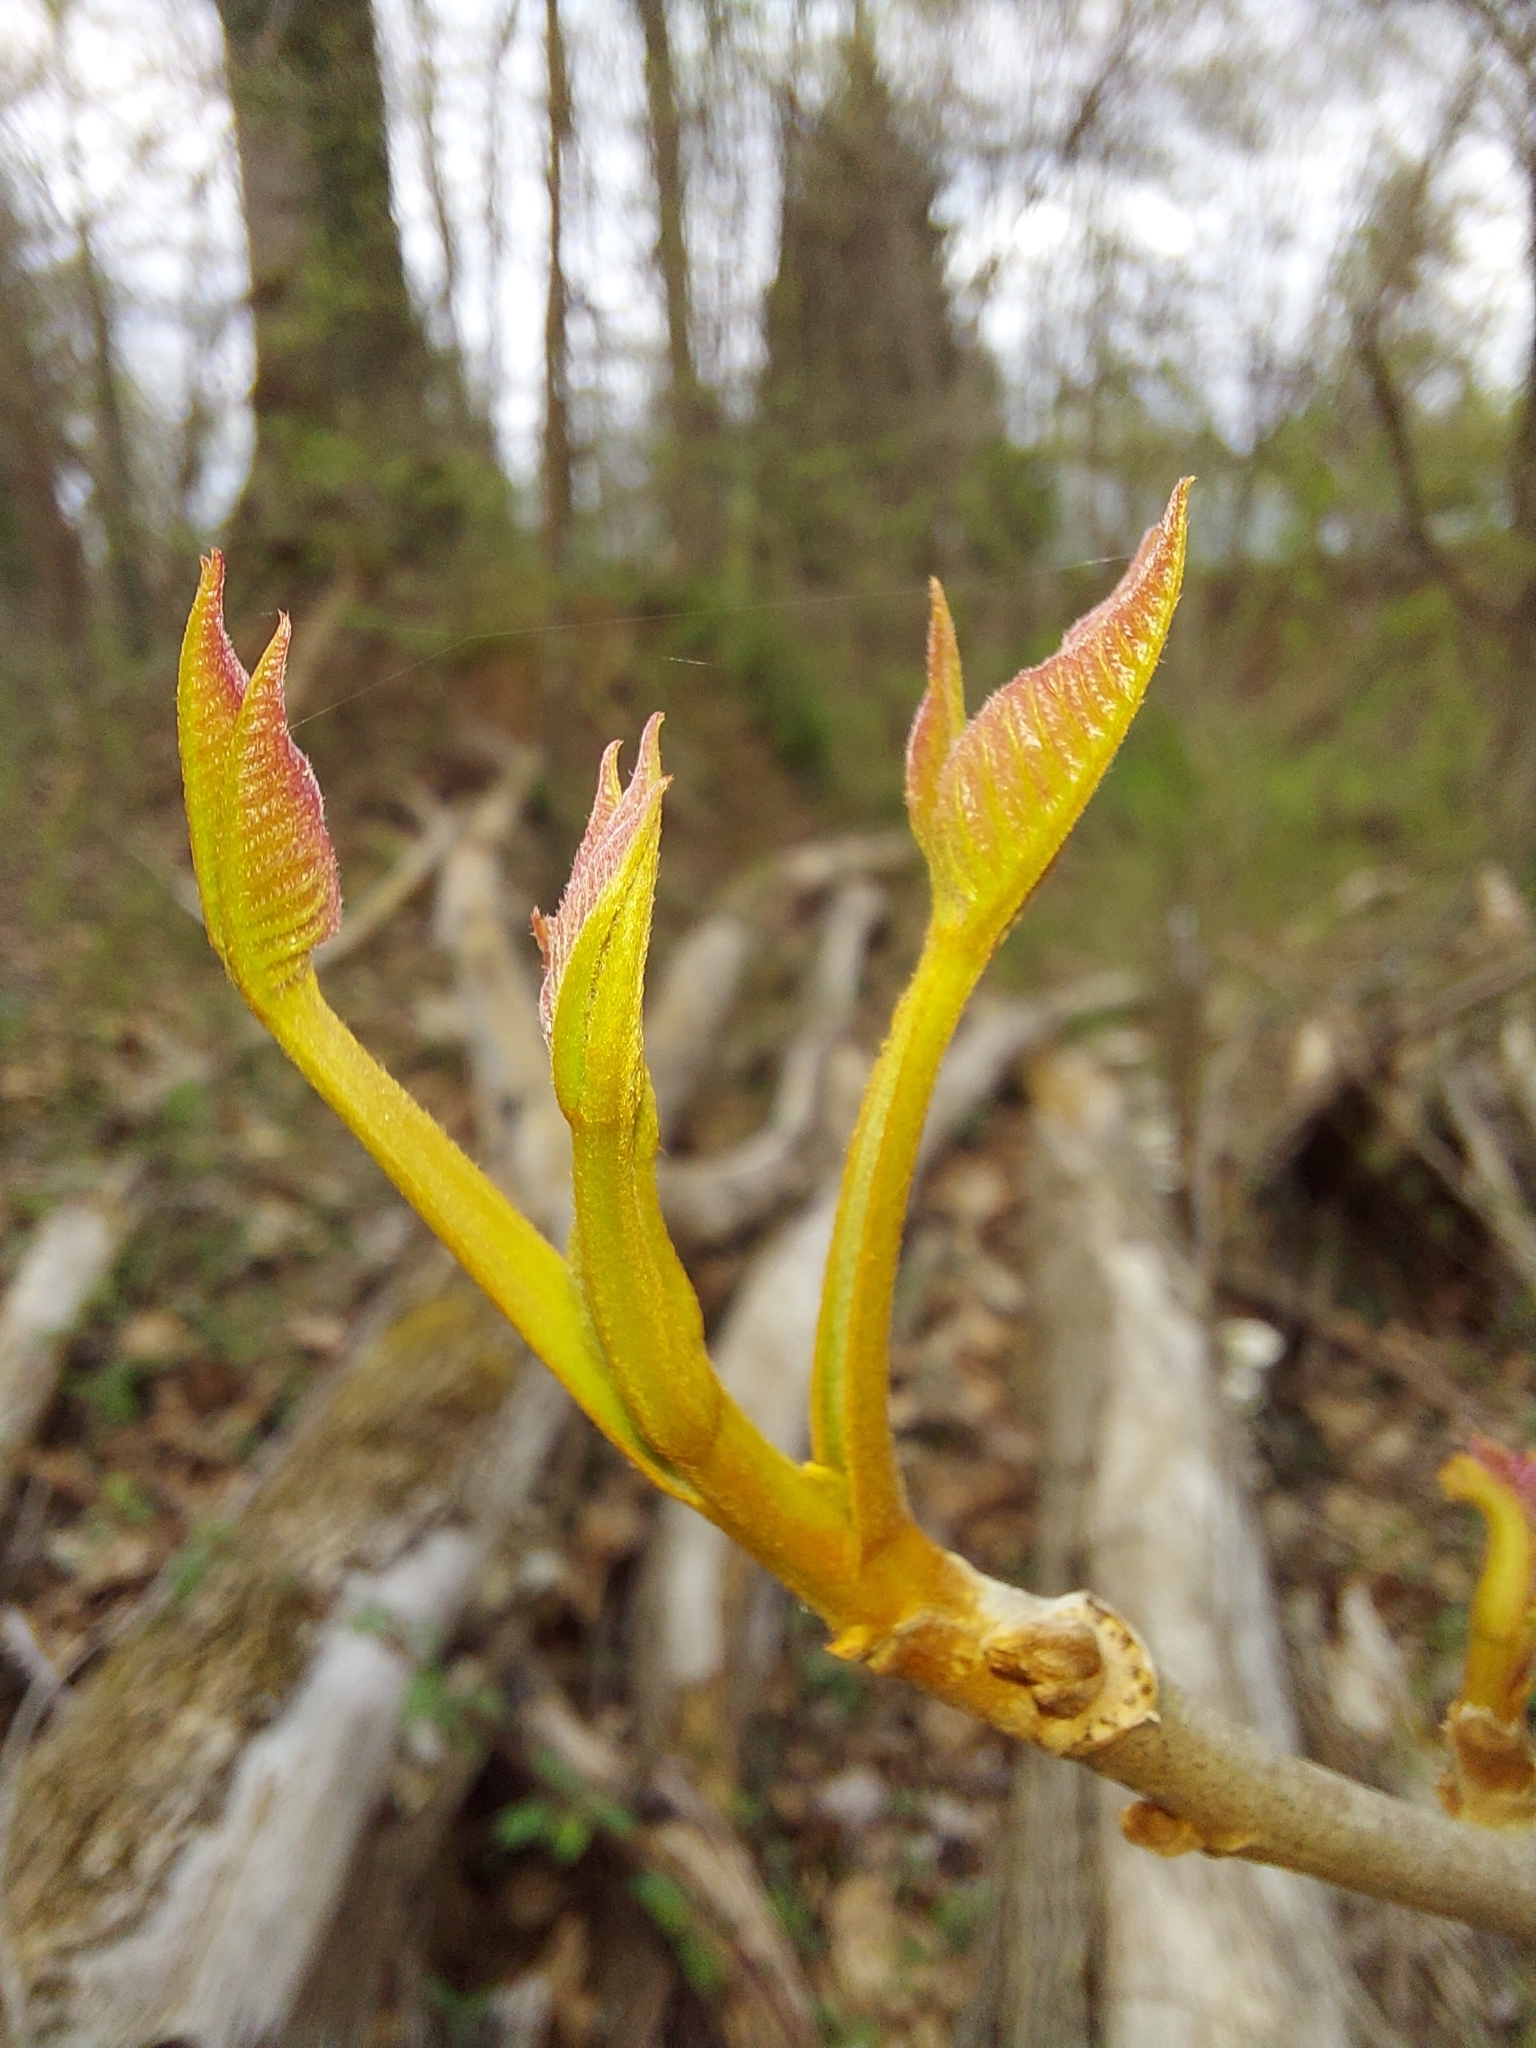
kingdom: Plantae
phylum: Tracheophyta
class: Magnoliopsida
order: Sapindales
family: Anacardiaceae
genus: Toxicodendron
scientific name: Toxicodendron radicans
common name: Poison ivy
